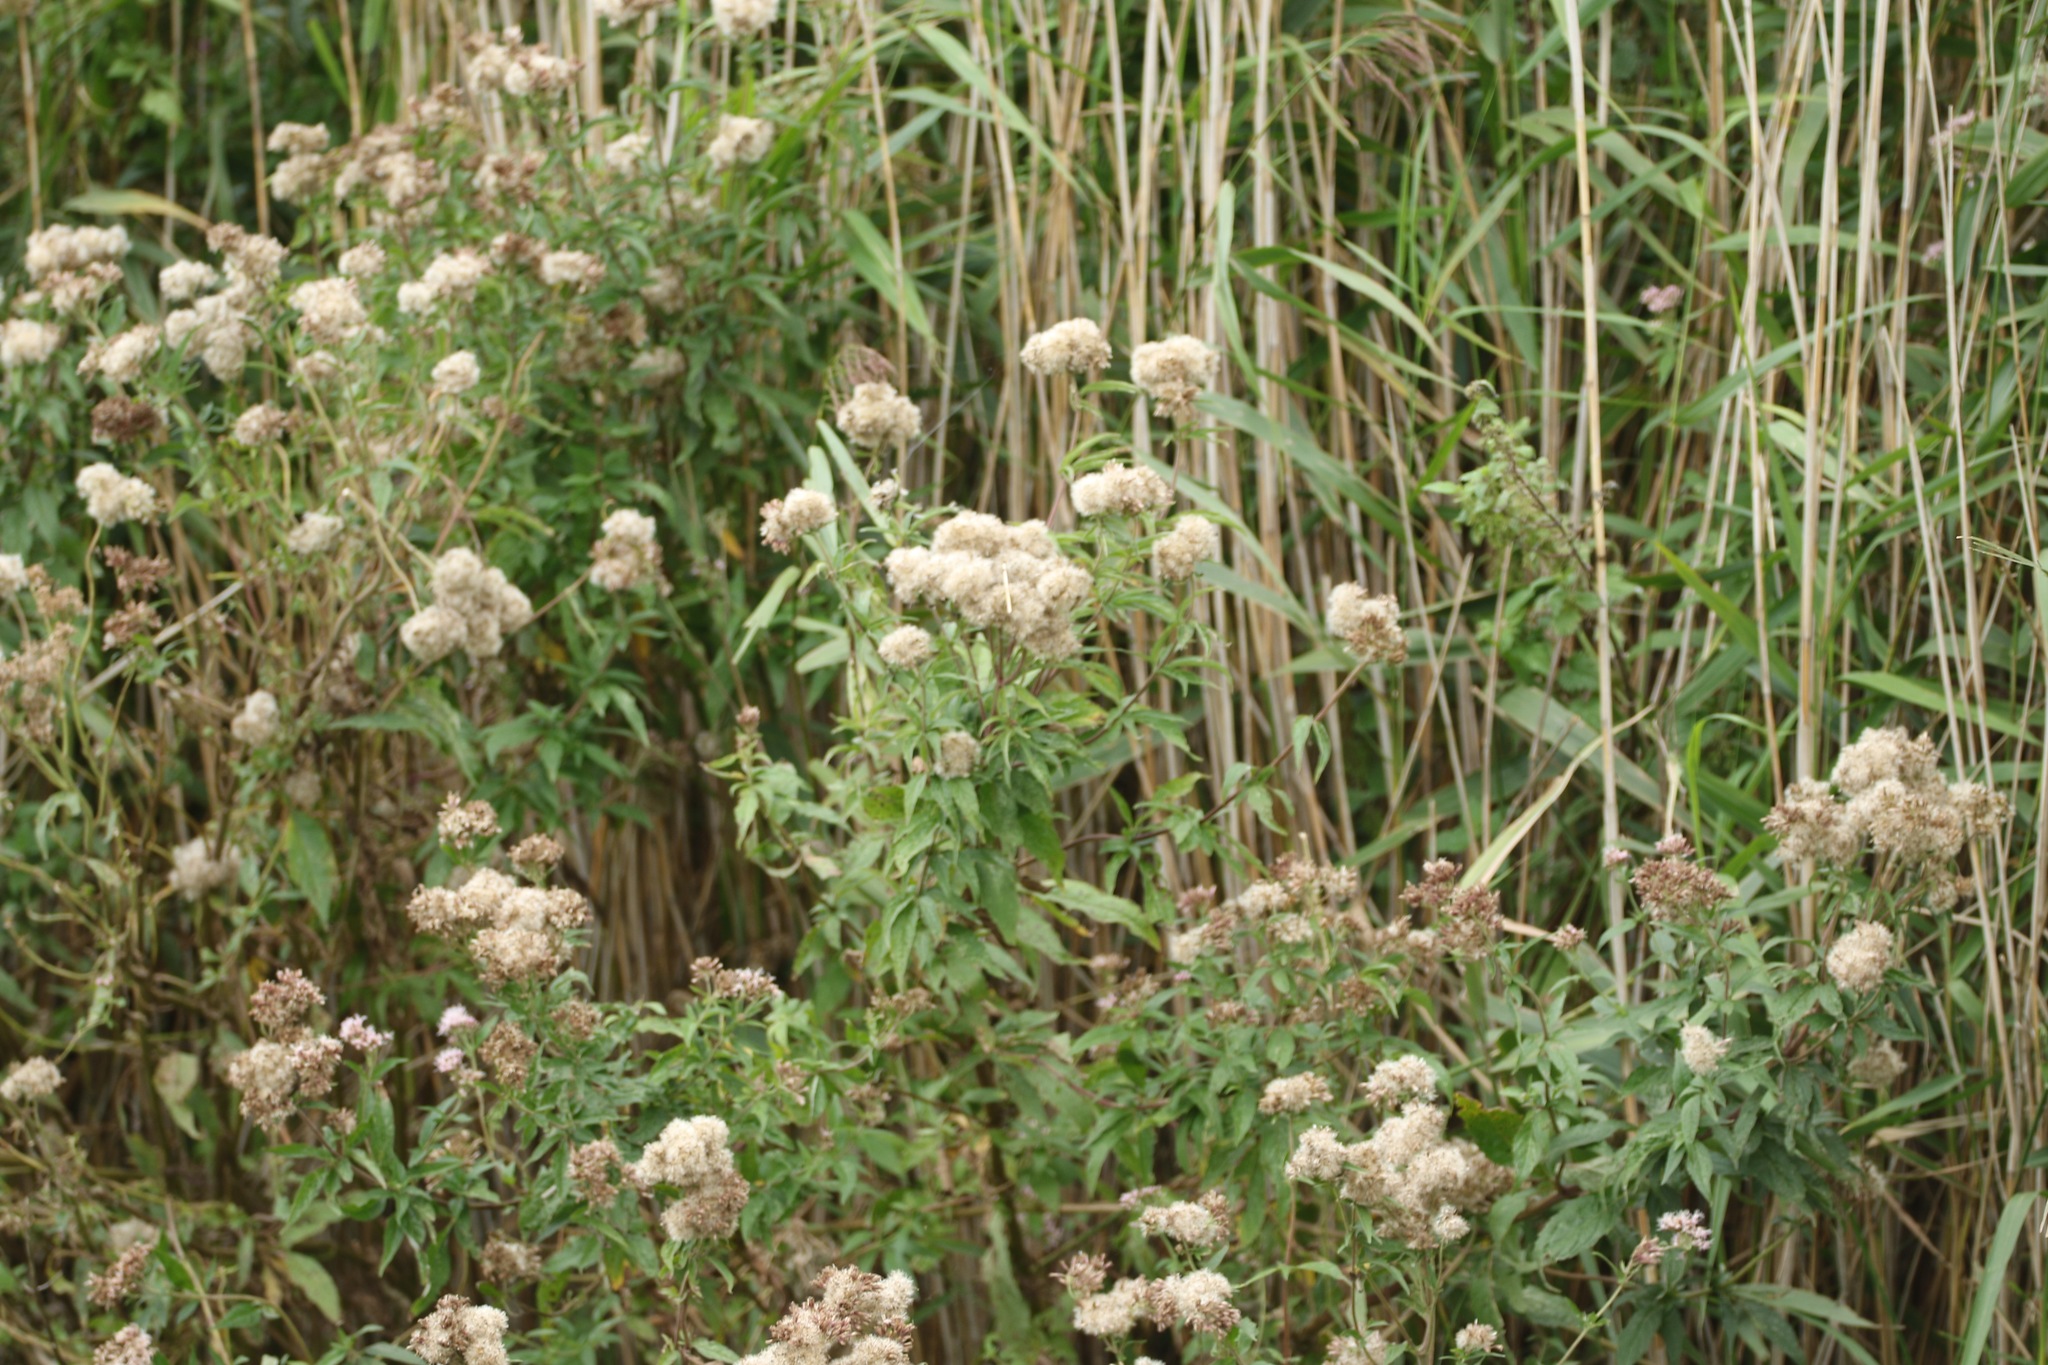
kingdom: Plantae
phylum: Tracheophyta
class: Magnoliopsida
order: Asterales
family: Asteraceae
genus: Eupatorium
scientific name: Eupatorium cannabinum
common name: Hemp-agrimony
